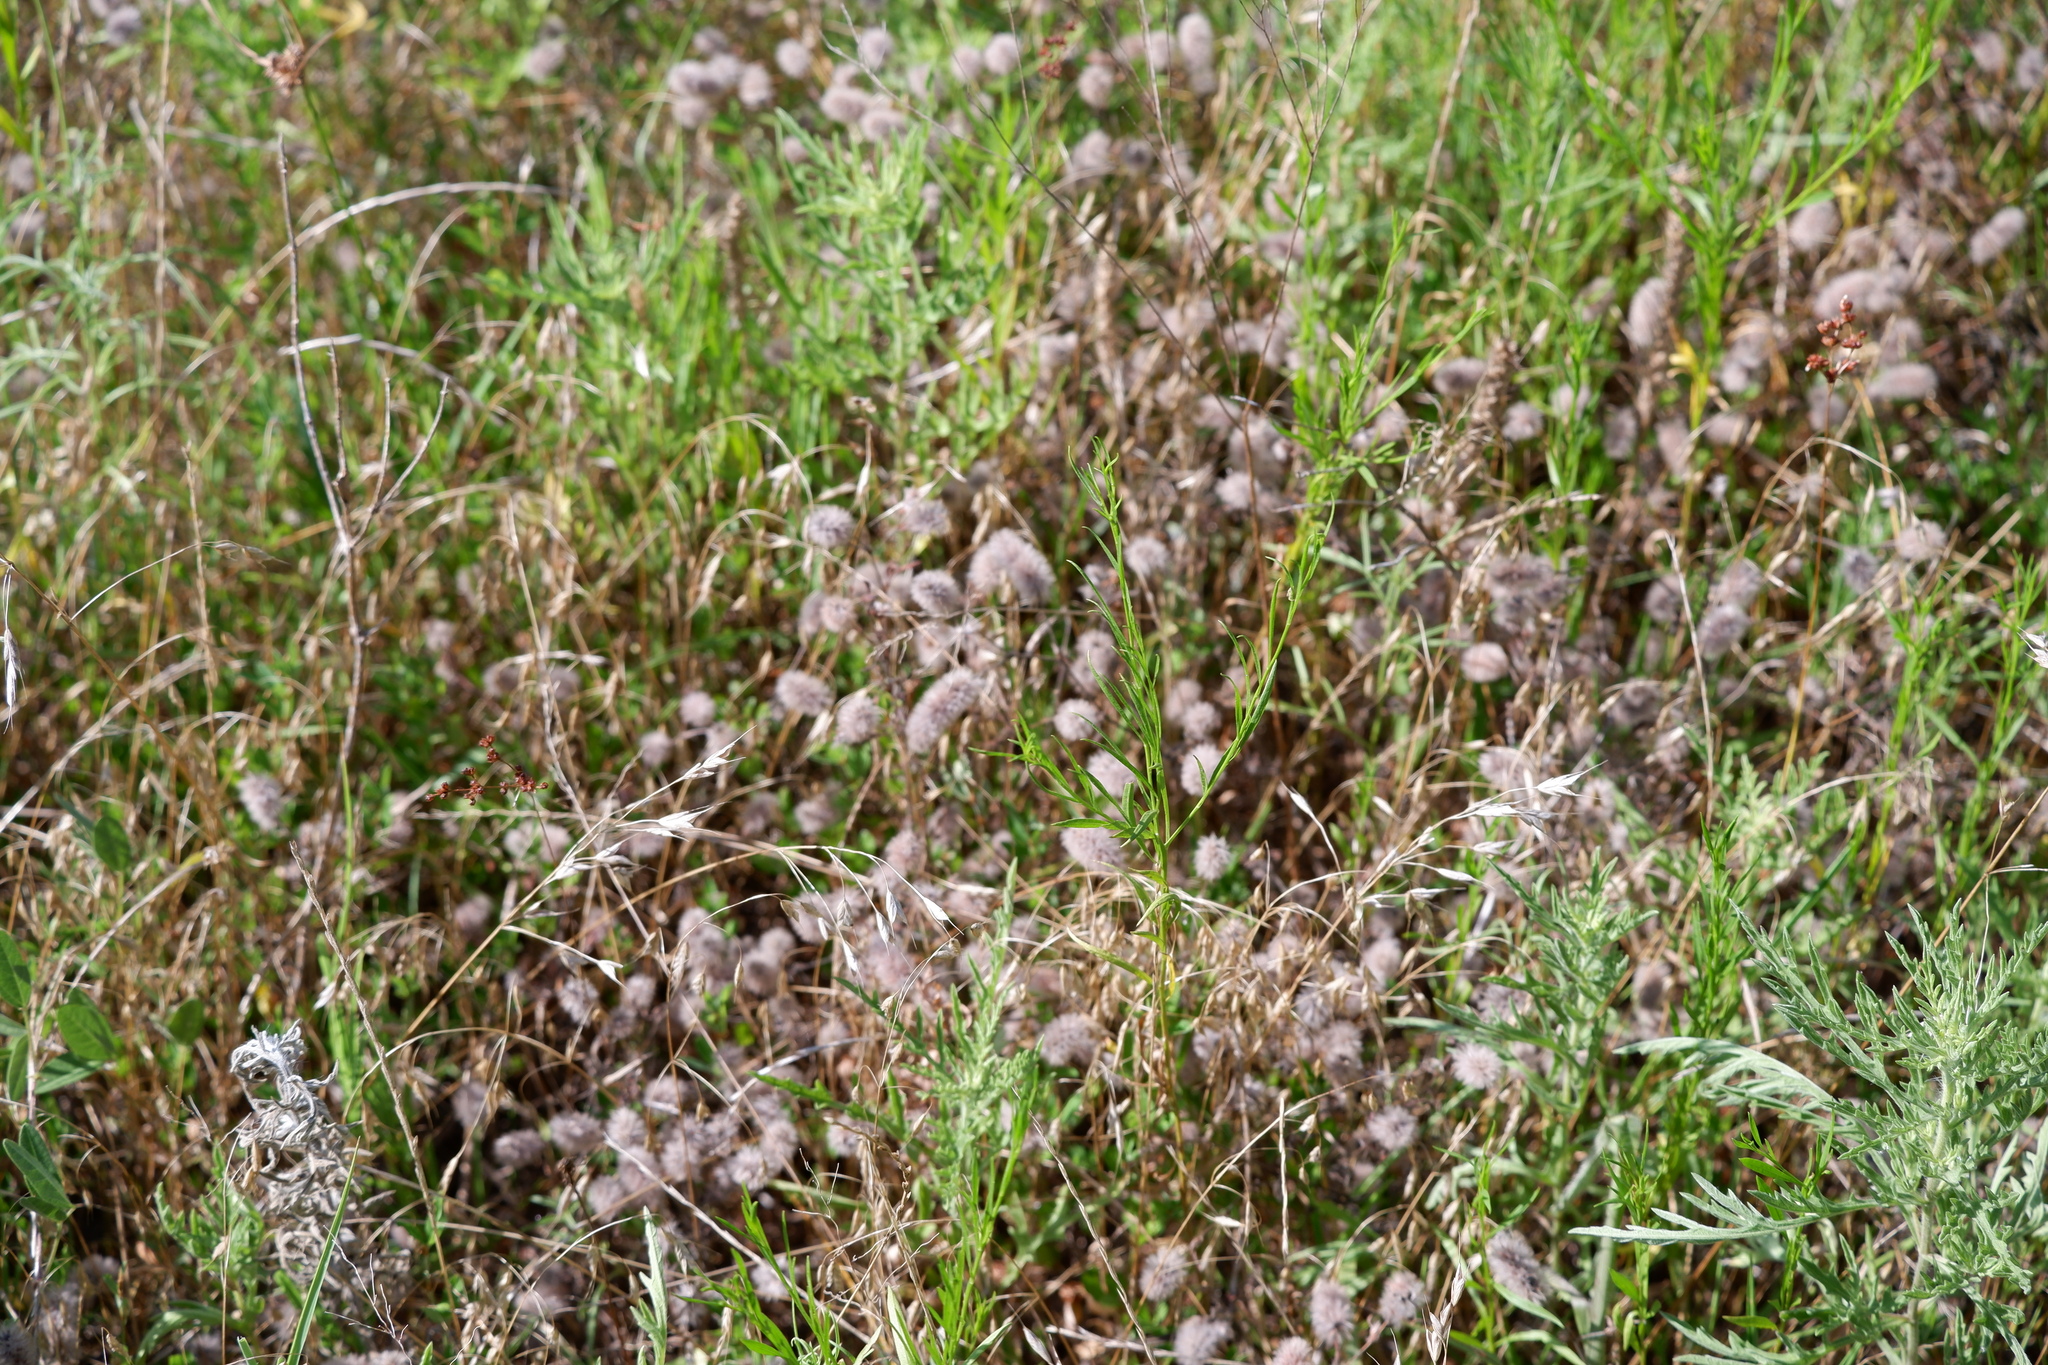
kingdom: Plantae
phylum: Tracheophyta
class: Magnoliopsida
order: Fabales
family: Fabaceae
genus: Trifolium
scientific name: Trifolium arvense
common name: Hare's-foot clover
